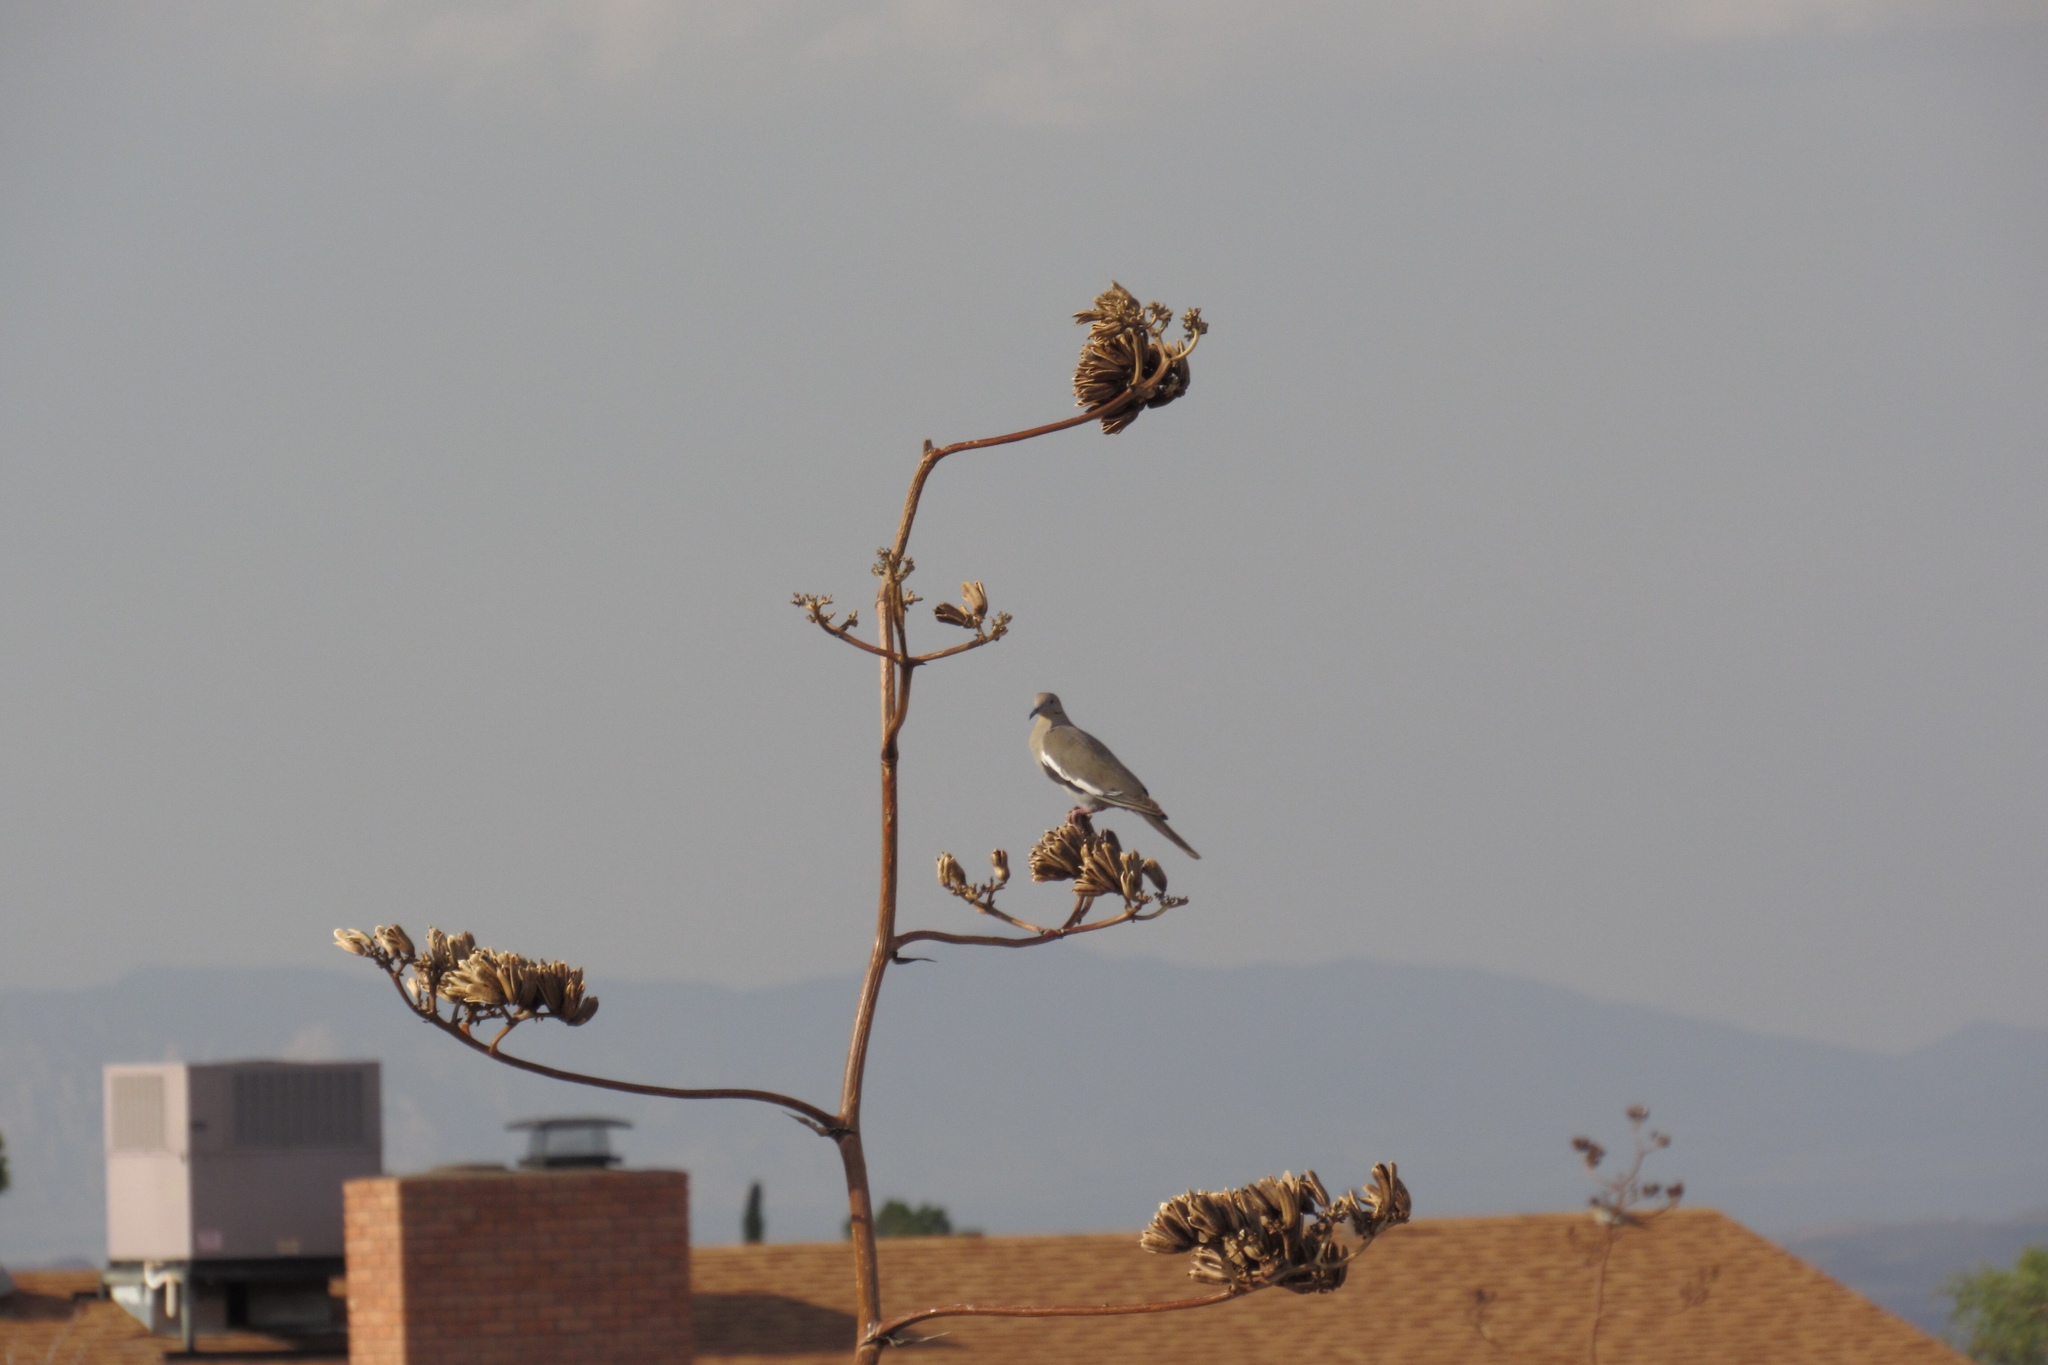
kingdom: Animalia
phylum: Chordata
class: Aves
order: Columbiformes
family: Columbidae
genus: Zenaida
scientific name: Zenaida asiatica
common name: White-winged dove
